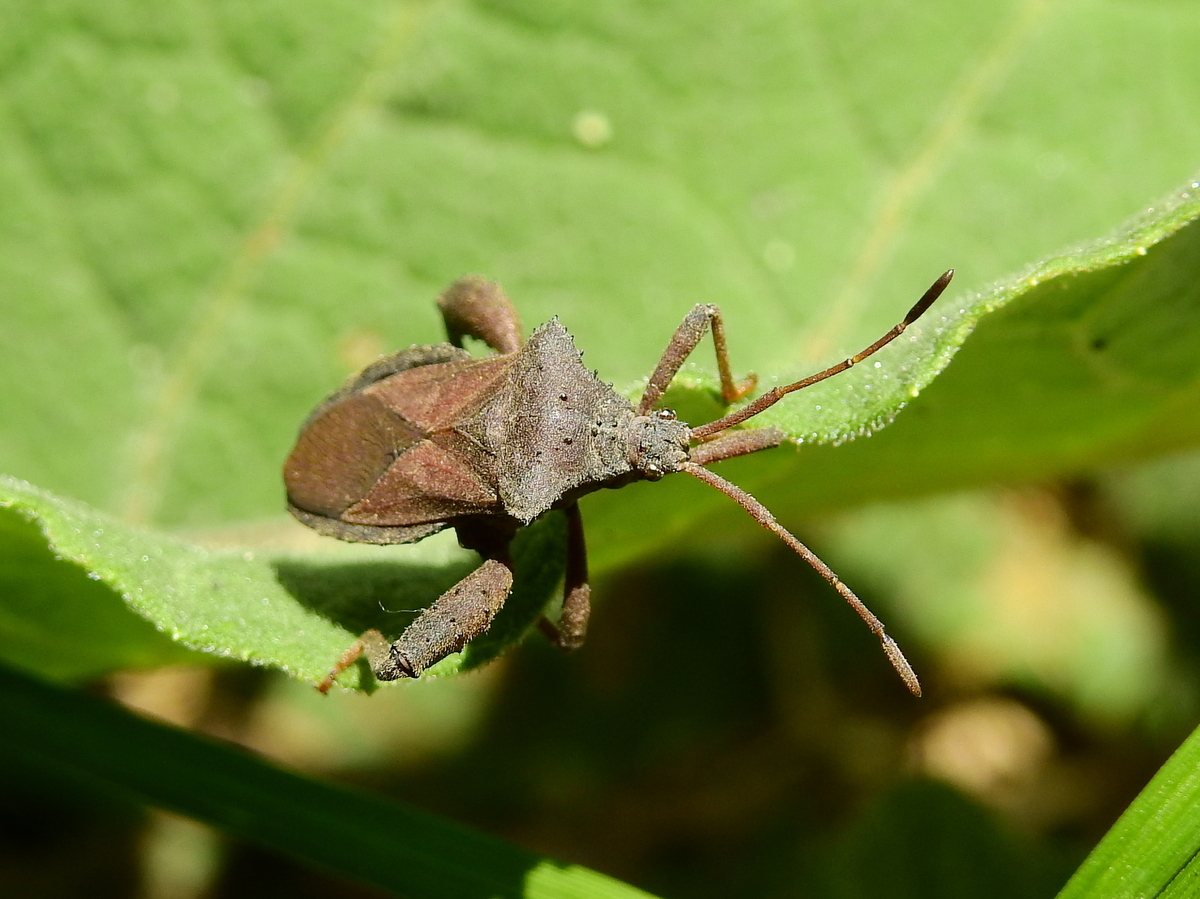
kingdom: Animalia
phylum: Arthropoda
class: Insecta
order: Hemiptera
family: Coreidae
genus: Camptischium
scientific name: Camptischium clavipes
